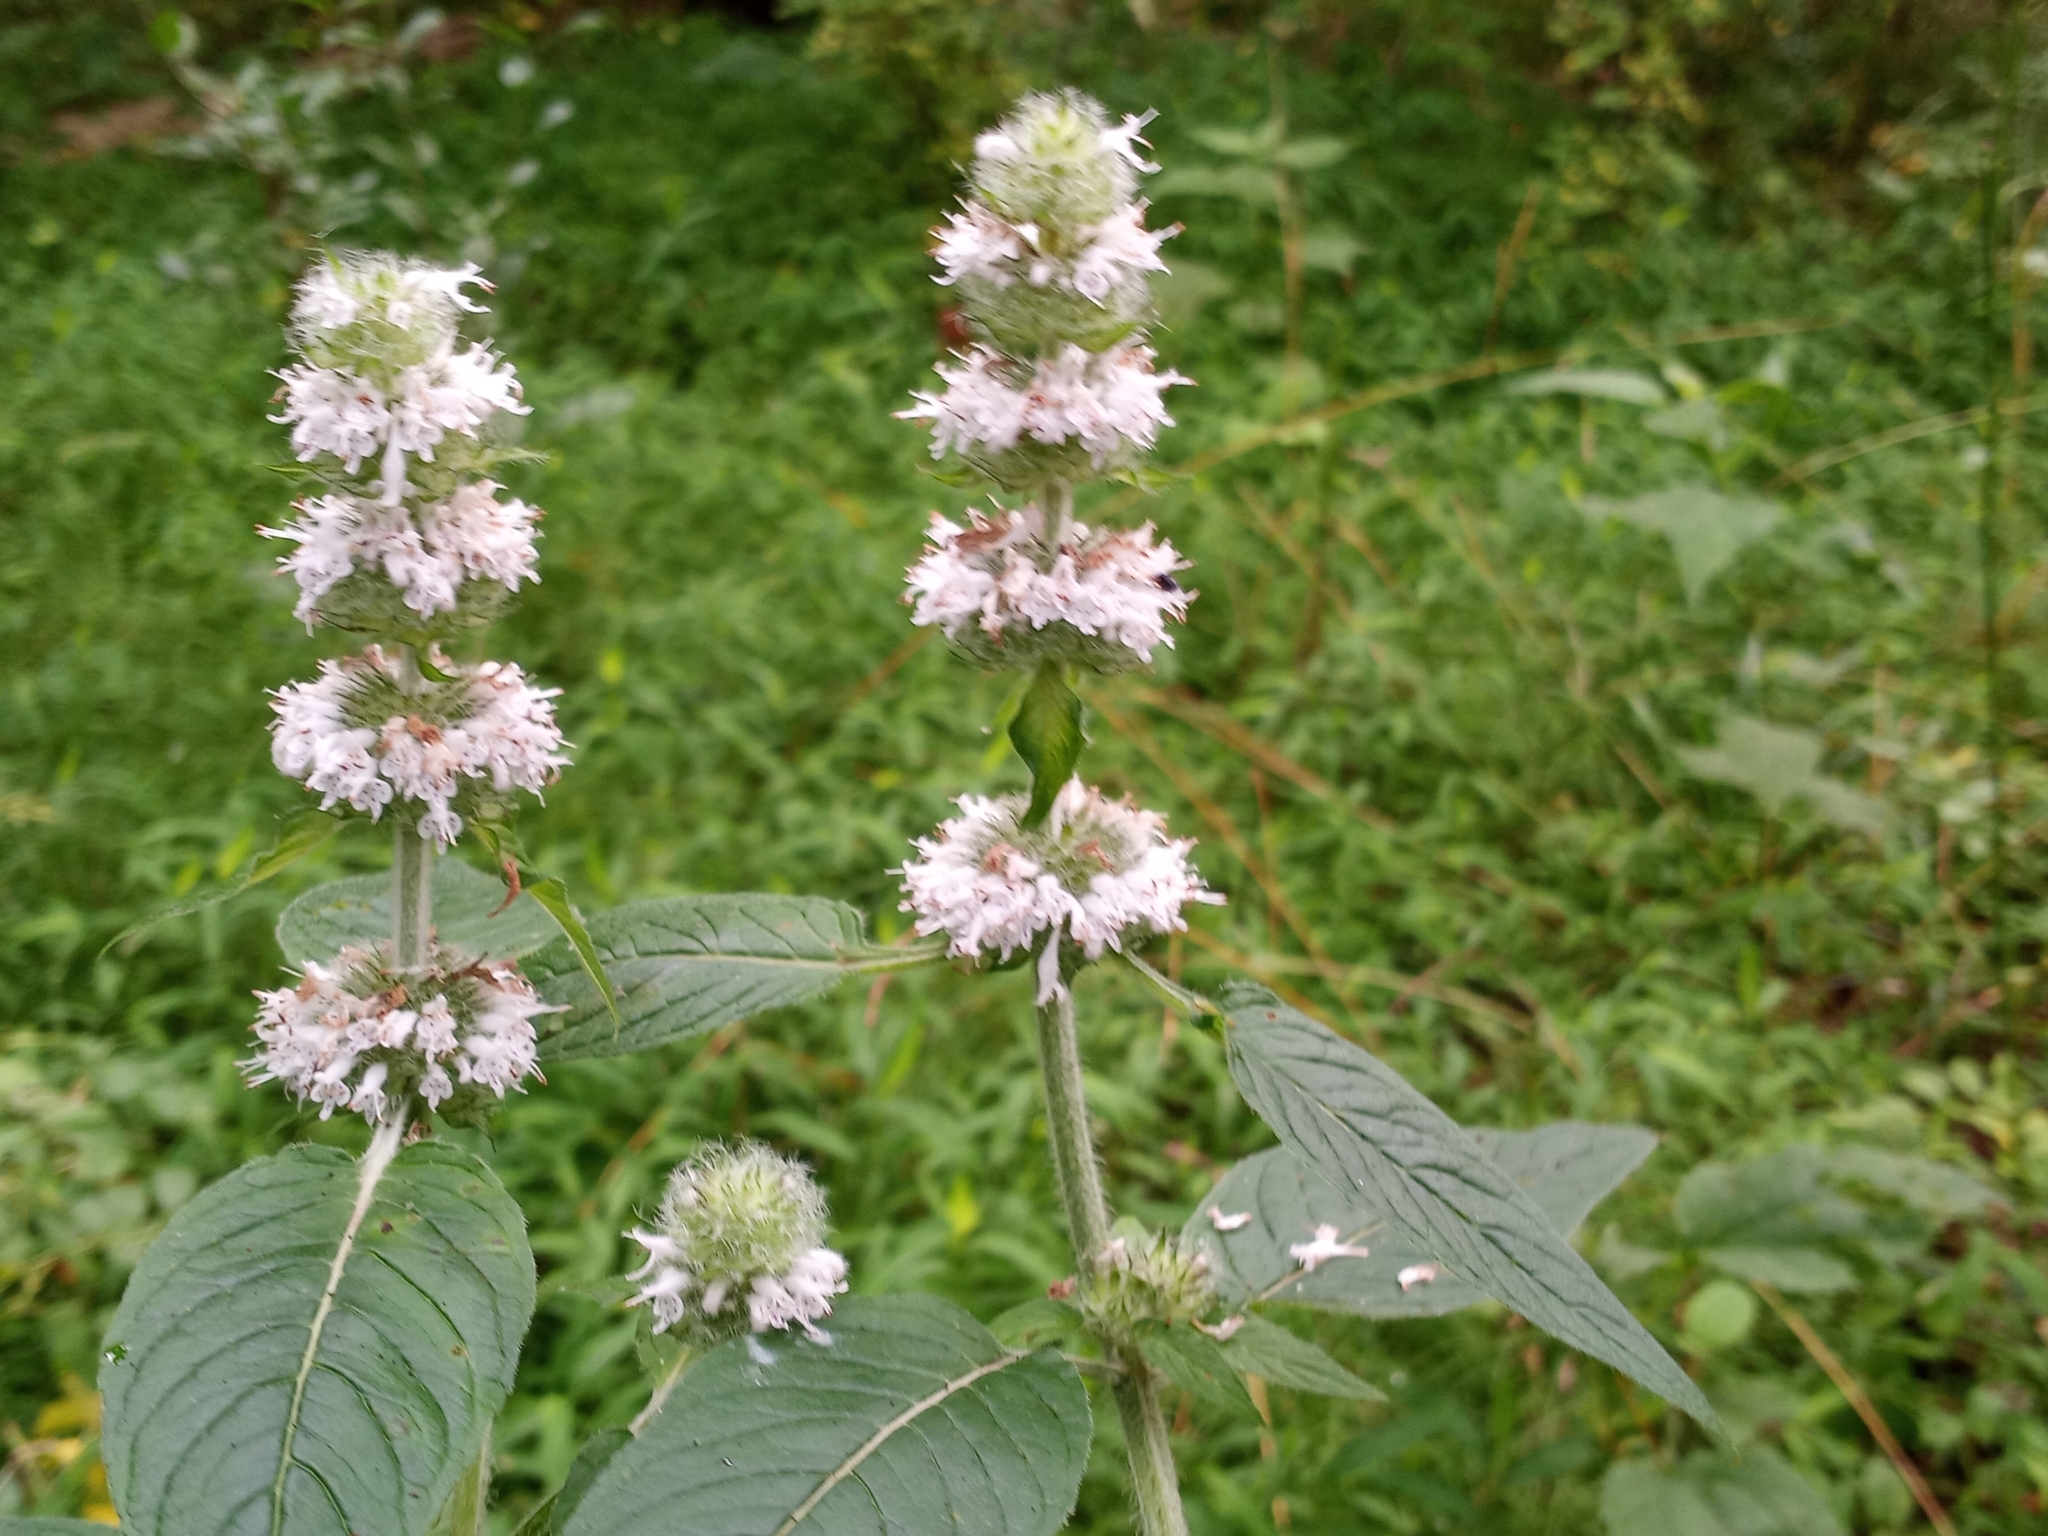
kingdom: Plantae
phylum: Tracheophyta
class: Magnoliopsida
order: Lamiales
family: Lamiaceae
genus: Blephilia
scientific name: Blephilia hirsuta
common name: Hairy blephilia
